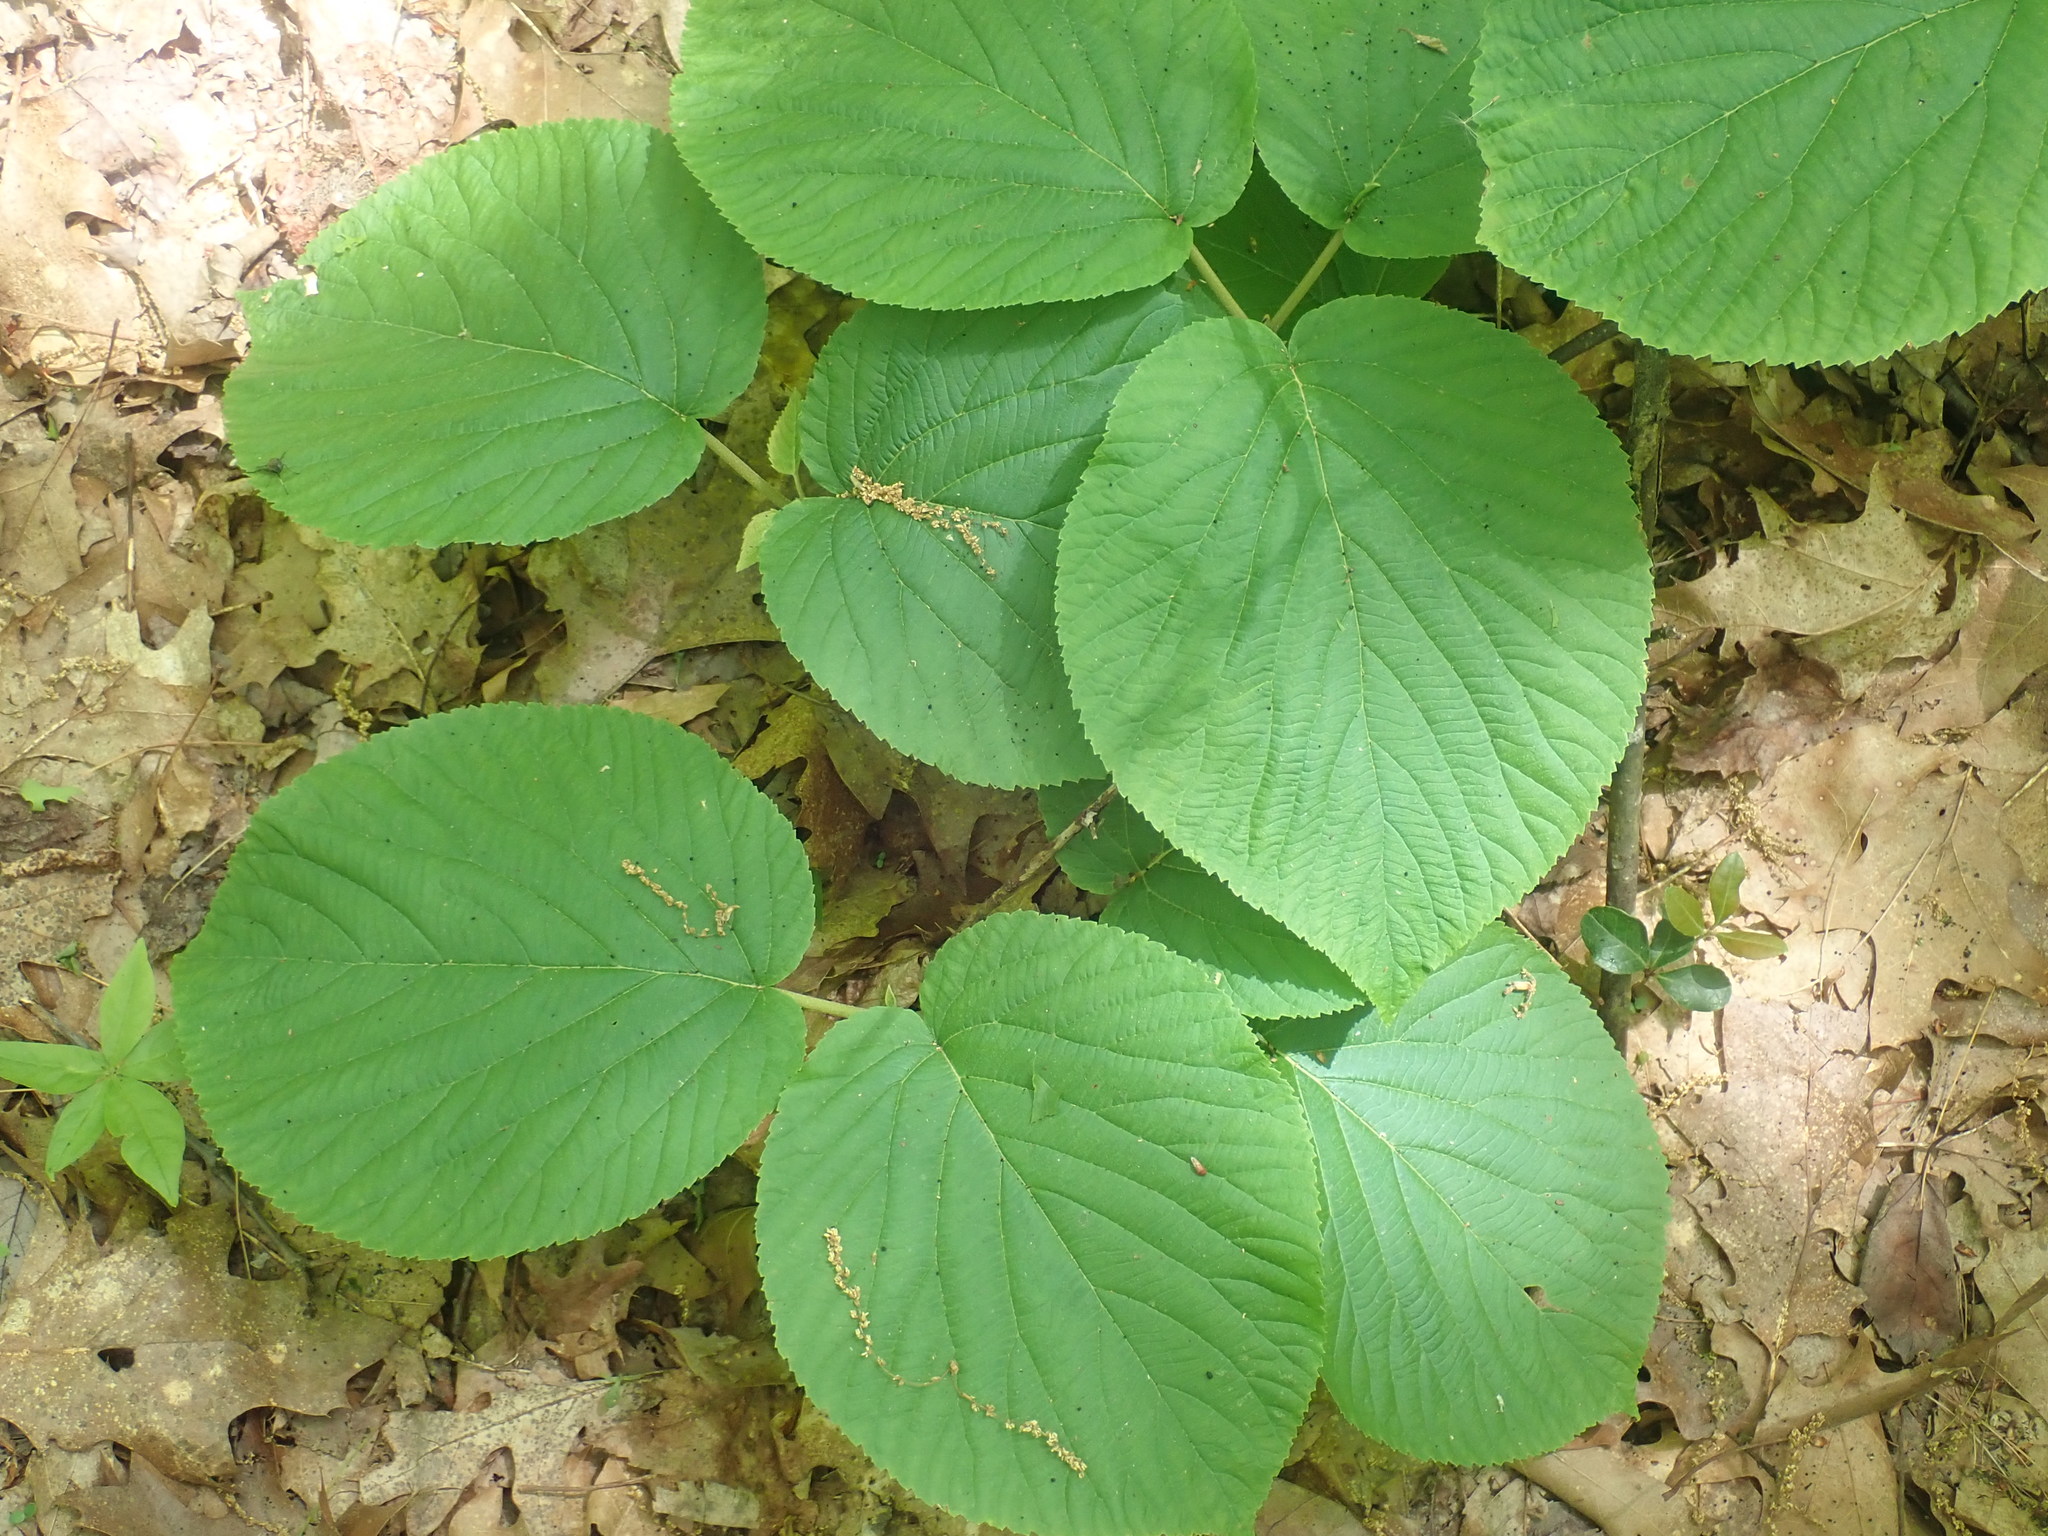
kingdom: Plantae
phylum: Tracheophyta
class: Magnoliopsida
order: Dipsacales
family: Viburnaceae
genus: Viburnum
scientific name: Viburnum lantanoides
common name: Hobblebush
